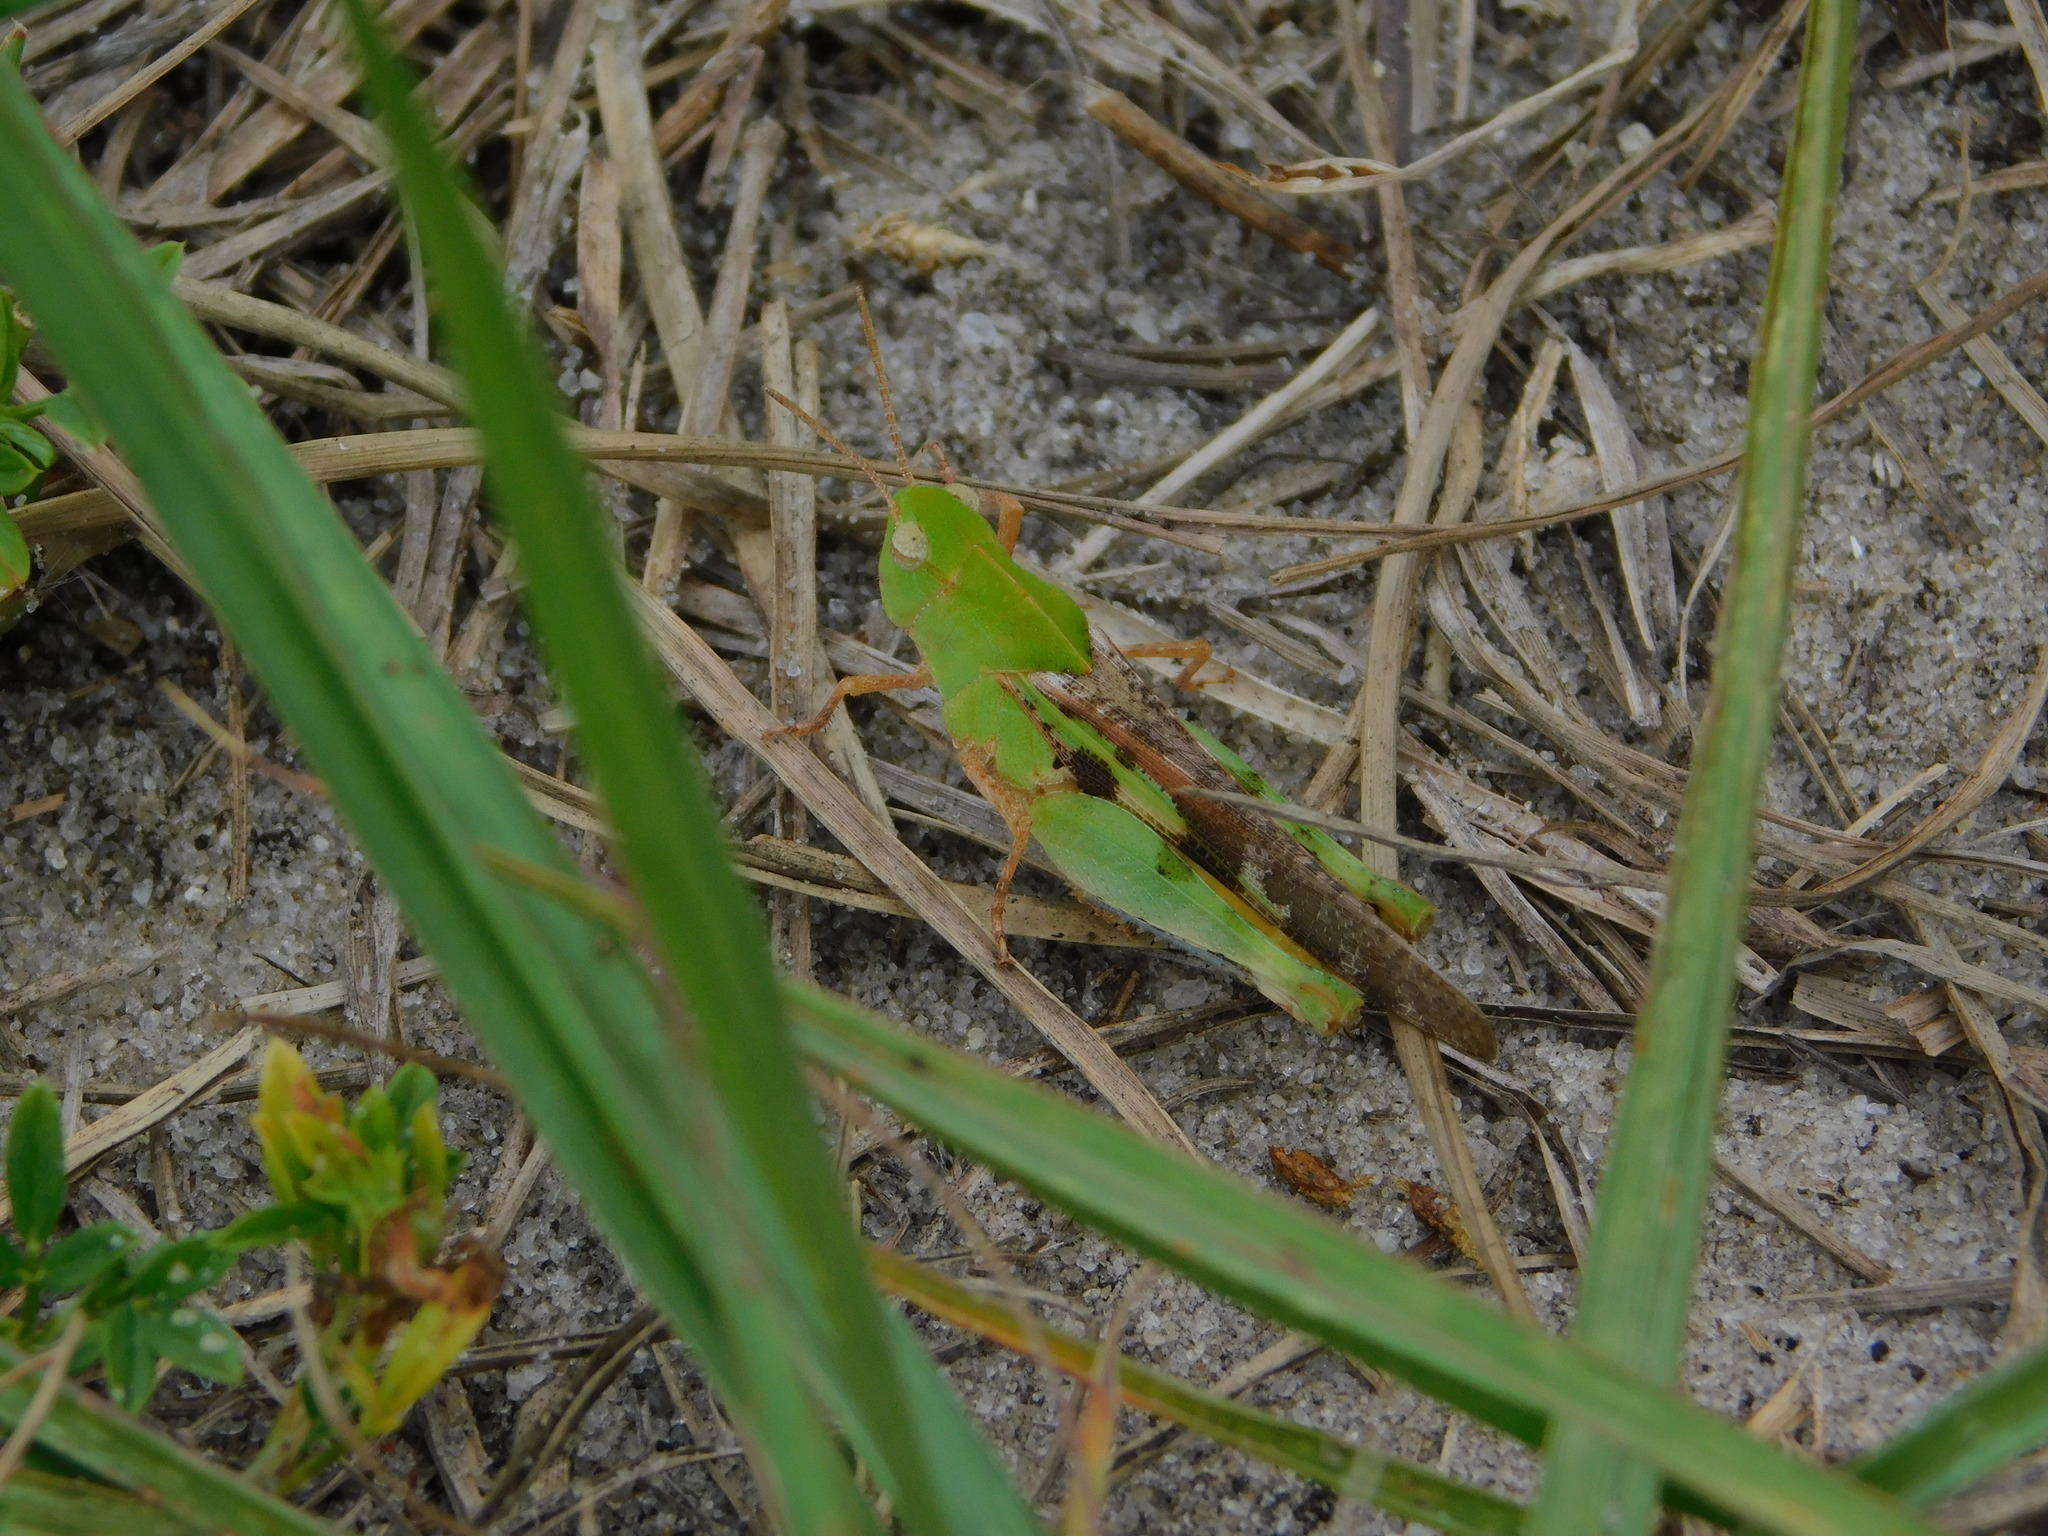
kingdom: Animalia
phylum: Arthropoda
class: Insecta
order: Orthoptera
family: Acrididae
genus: Chortophaga
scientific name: Chortophaga australior
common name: Southern green-striped grasshopper
